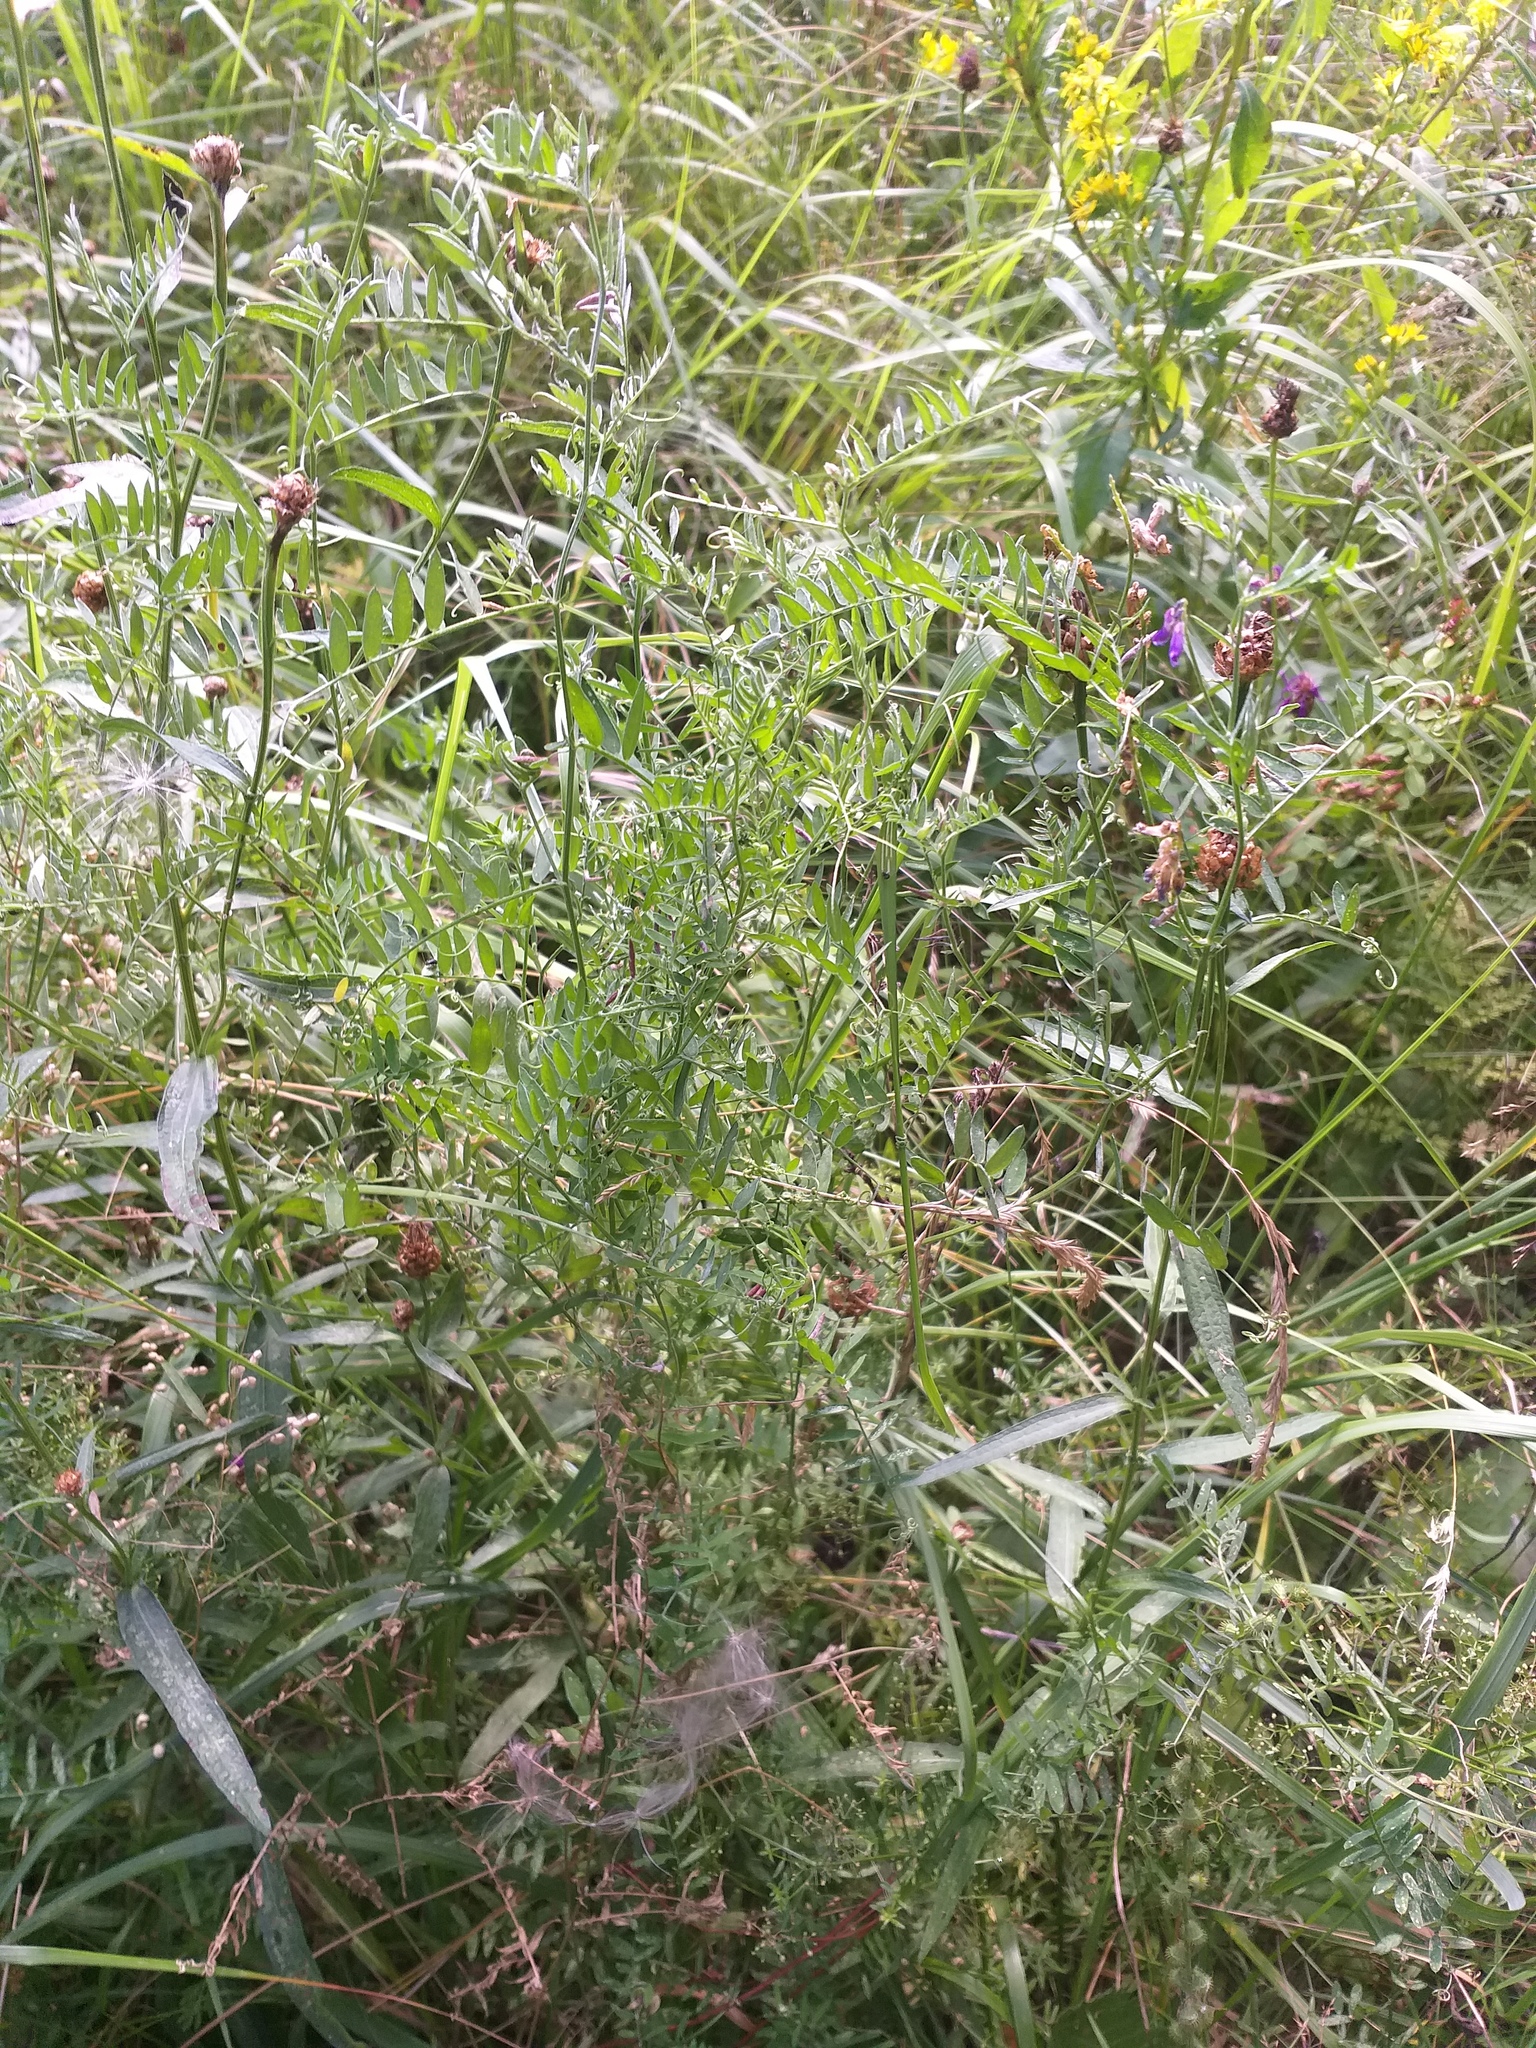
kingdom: Plantae
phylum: Tracheophyta
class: Magnoliopsida
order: Fabales
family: Fabaceae
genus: Vicia
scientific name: Vicia cracca
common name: Bird vetch
